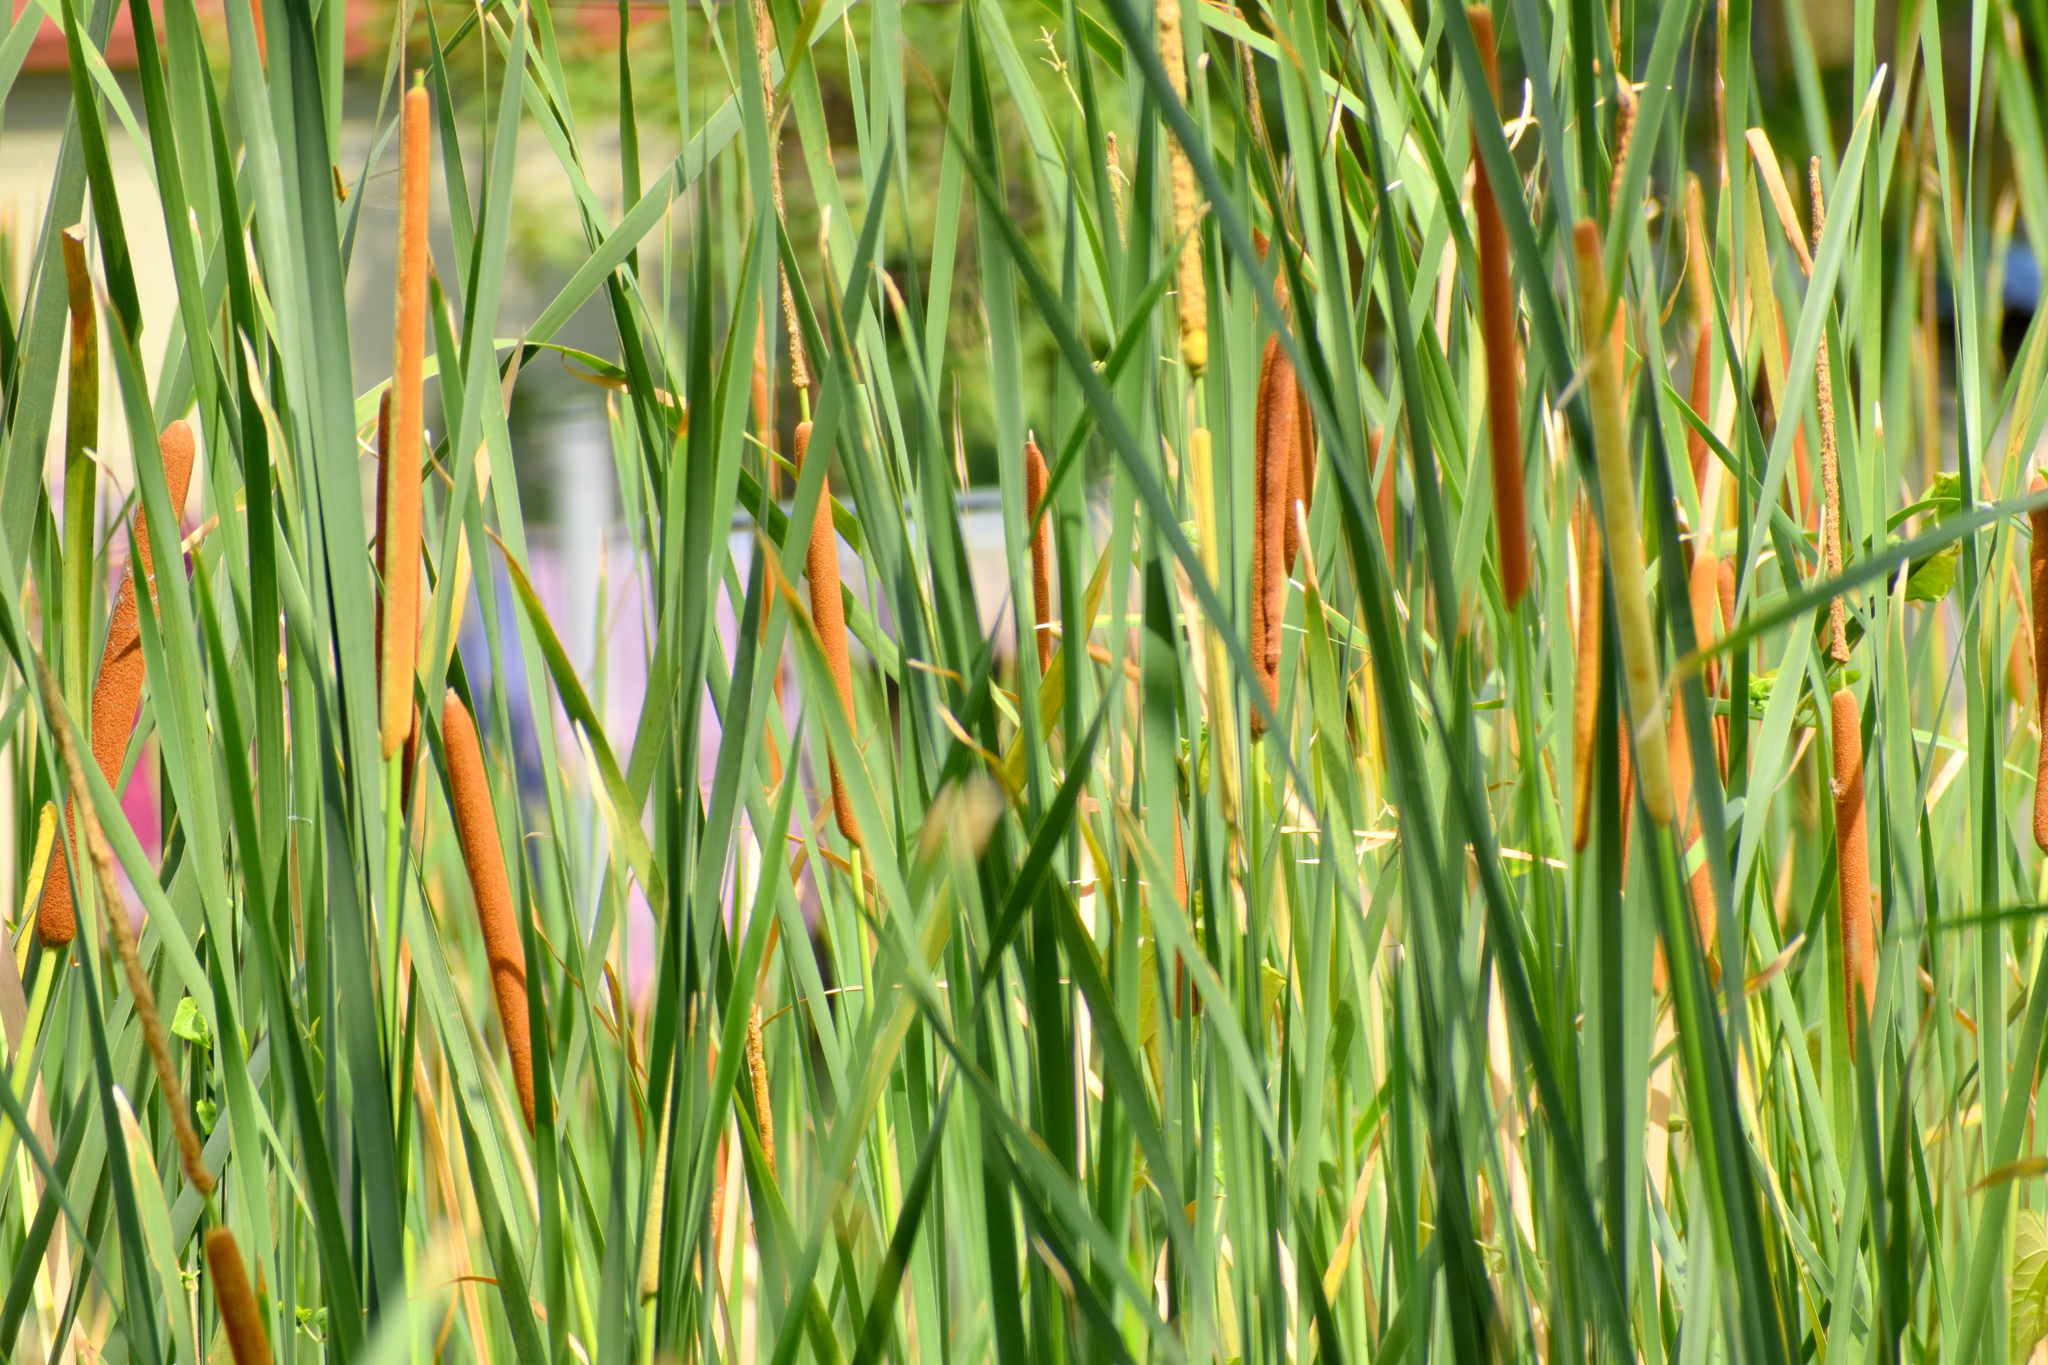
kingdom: Plantae
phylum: Tracheophyta
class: Liliopsida
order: Poales
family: Typhaceae
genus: Typha
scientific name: Typha elephantina
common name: Indian reed-grass
